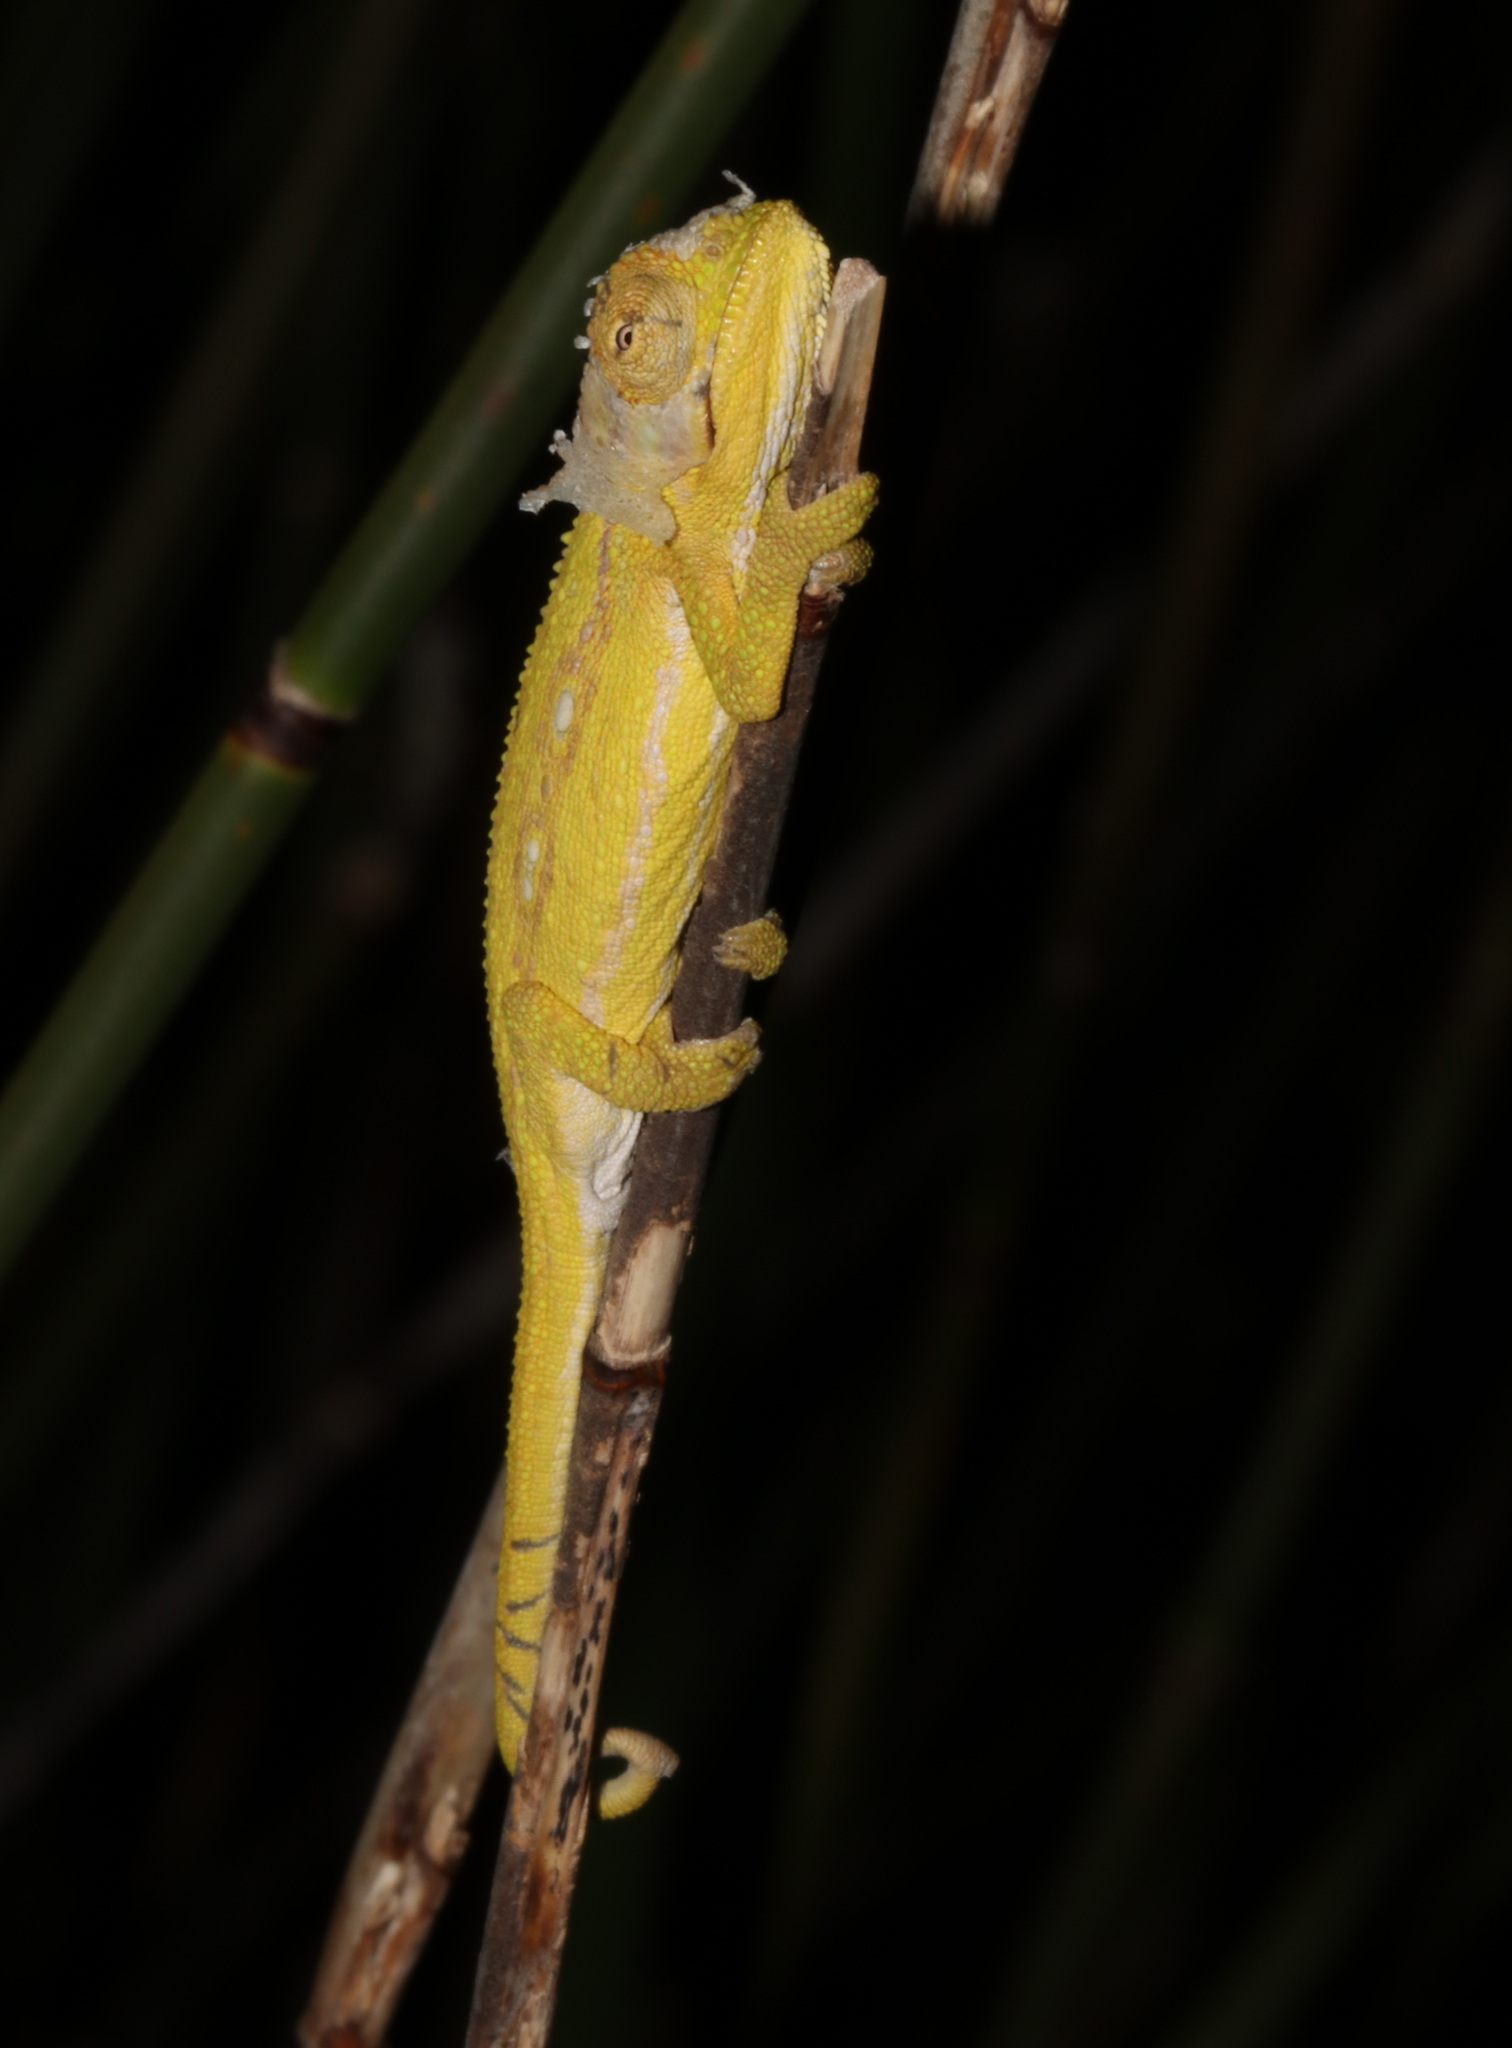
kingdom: Animalia
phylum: Chordata
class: Squamata
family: Chamaeleonidae
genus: Bradypodion
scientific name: Bradypodion pumilum
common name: Cape dwarf chameleon
